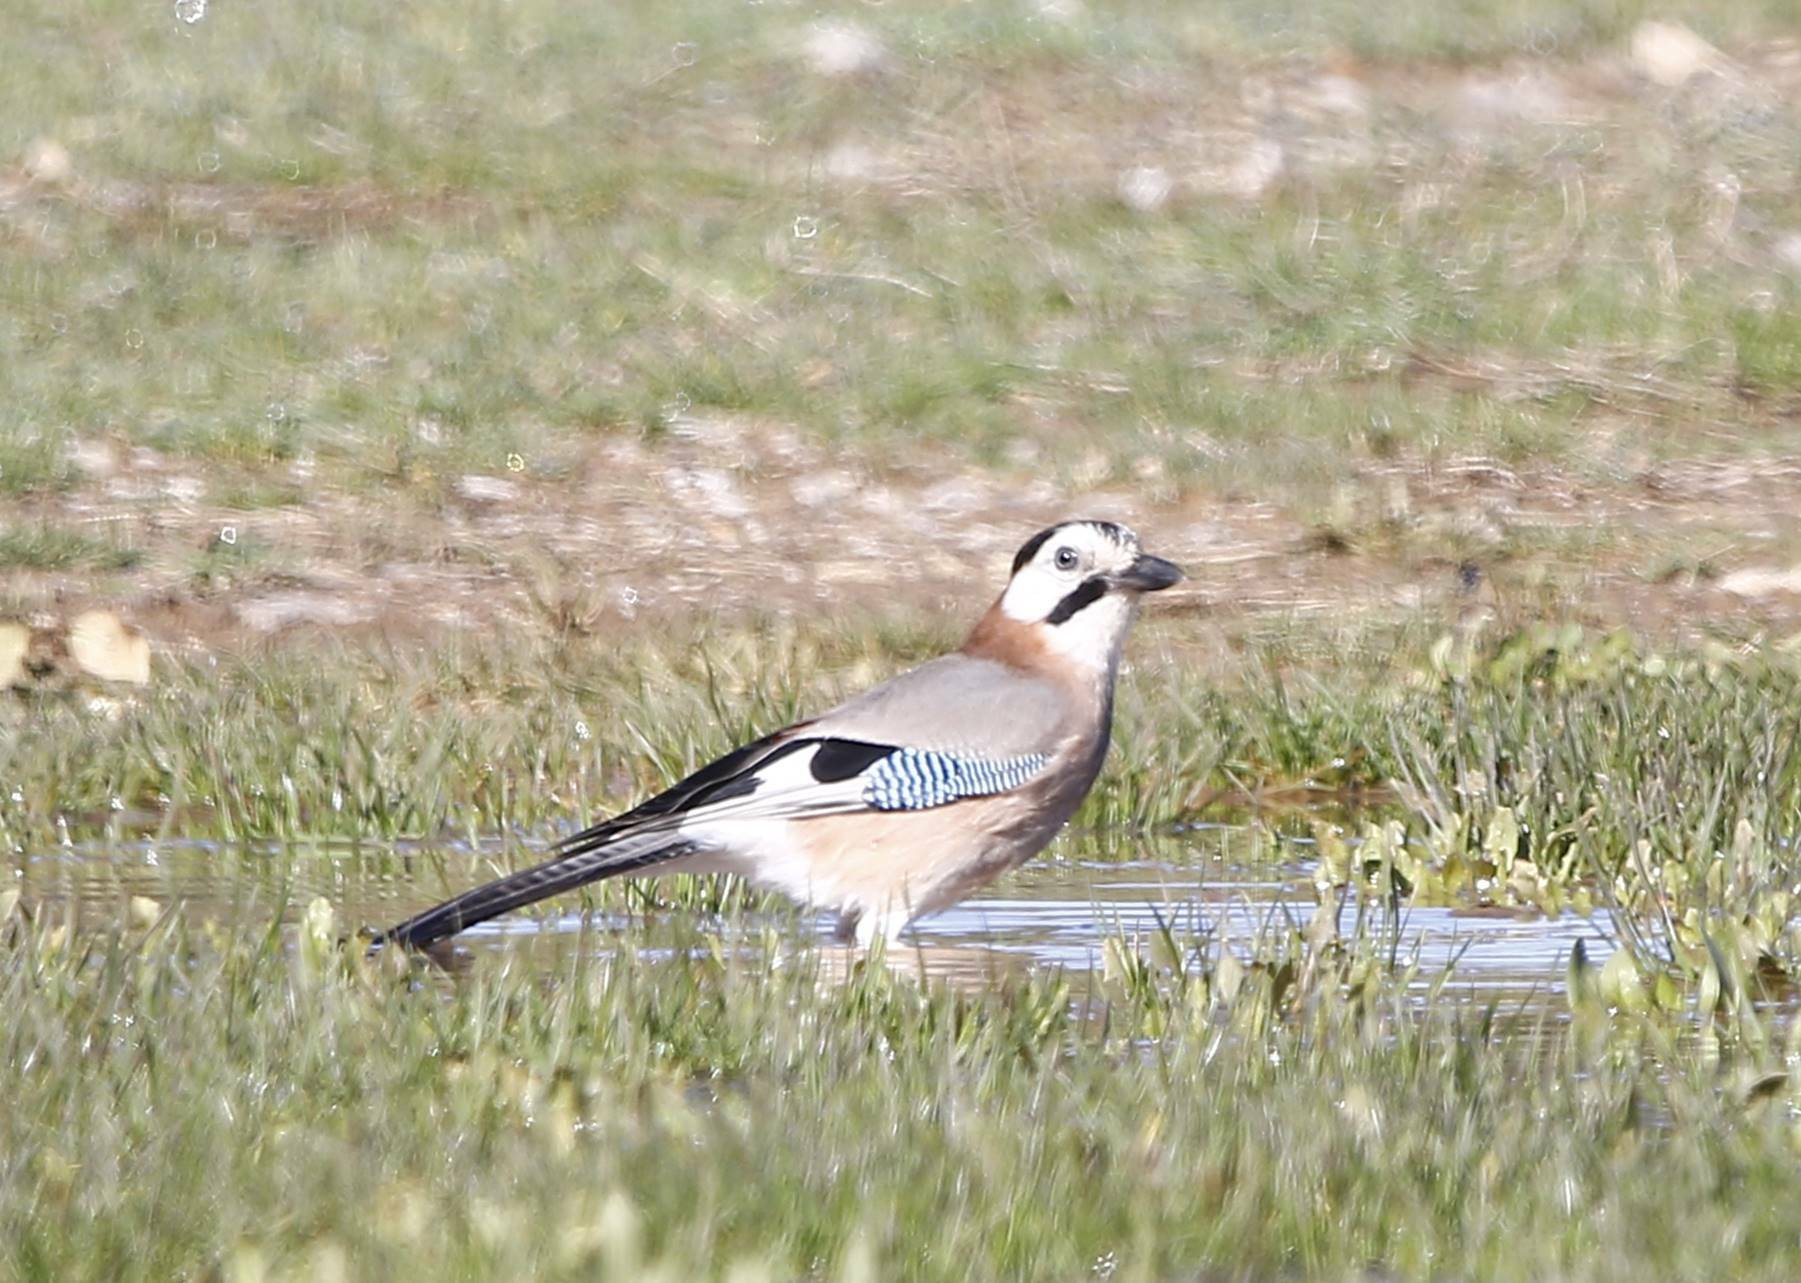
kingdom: Animalia
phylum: Chordata
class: Aves
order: Passeriformes
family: Corvidae
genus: Garrulus
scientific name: Garrulus glandarius
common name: Eurasian jay
